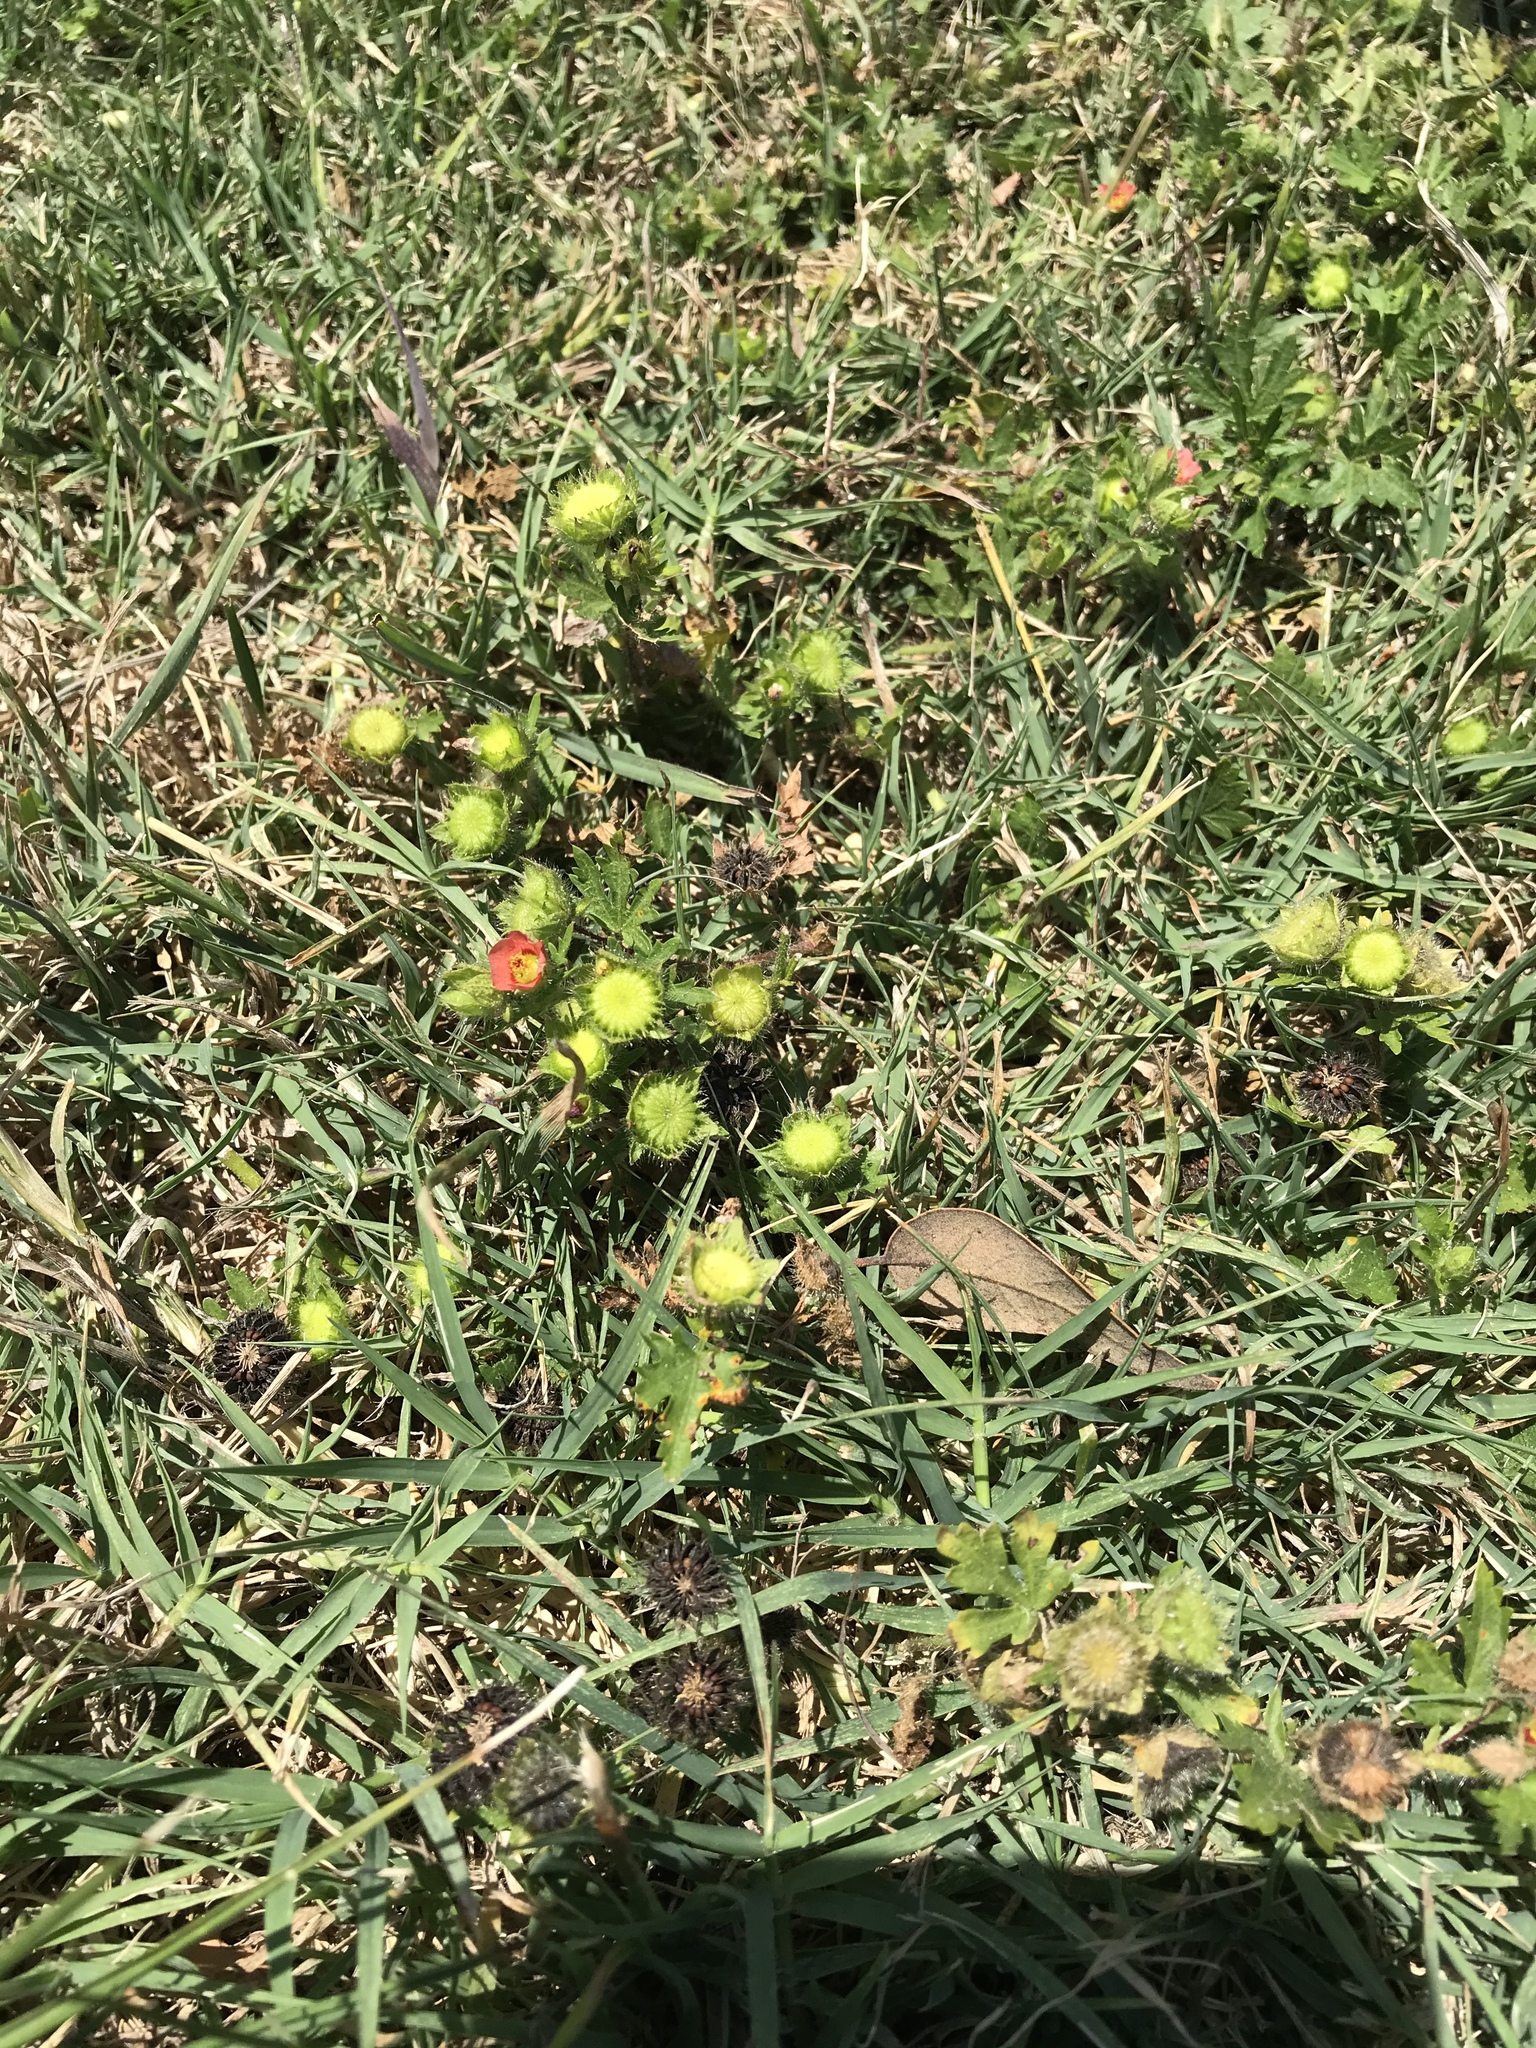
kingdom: Plantae
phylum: Tracheophyta
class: Magnoliopsida
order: Malvales
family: Malvaceae
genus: Modiola
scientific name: Modiola caroliniana
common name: Carolina bristlemallow
